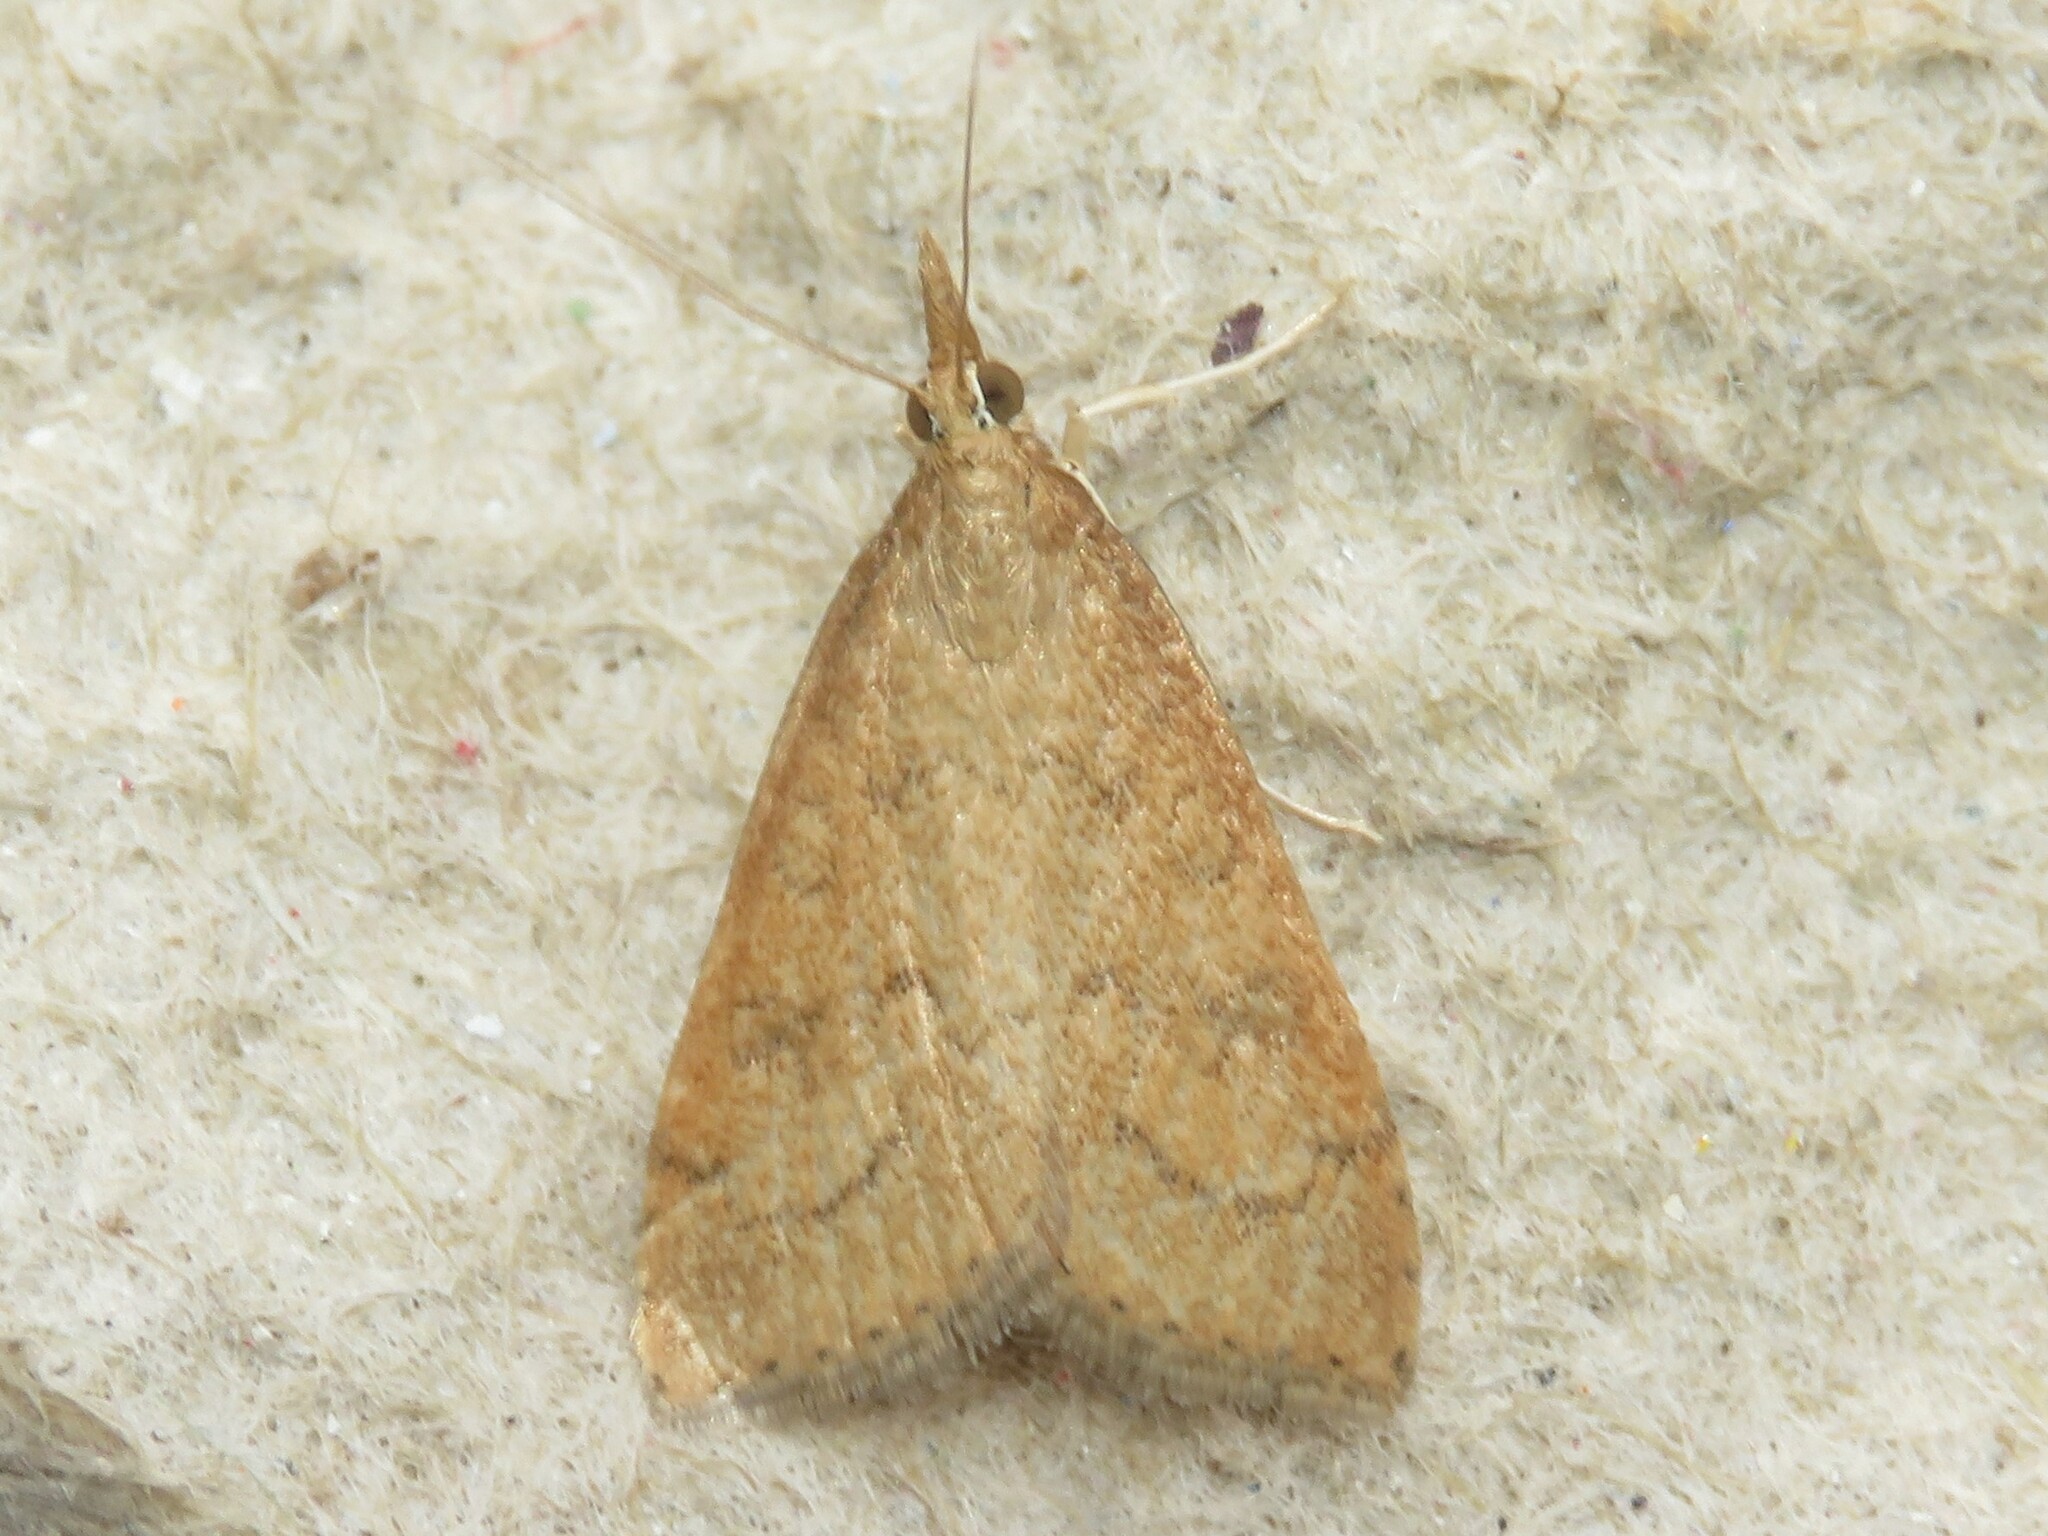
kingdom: Animalia
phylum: Arthropoda
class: Insecta
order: Lepidoptera
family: Crambidae
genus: Udea
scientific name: Udea rubigalis
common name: Celery leaftier moth
